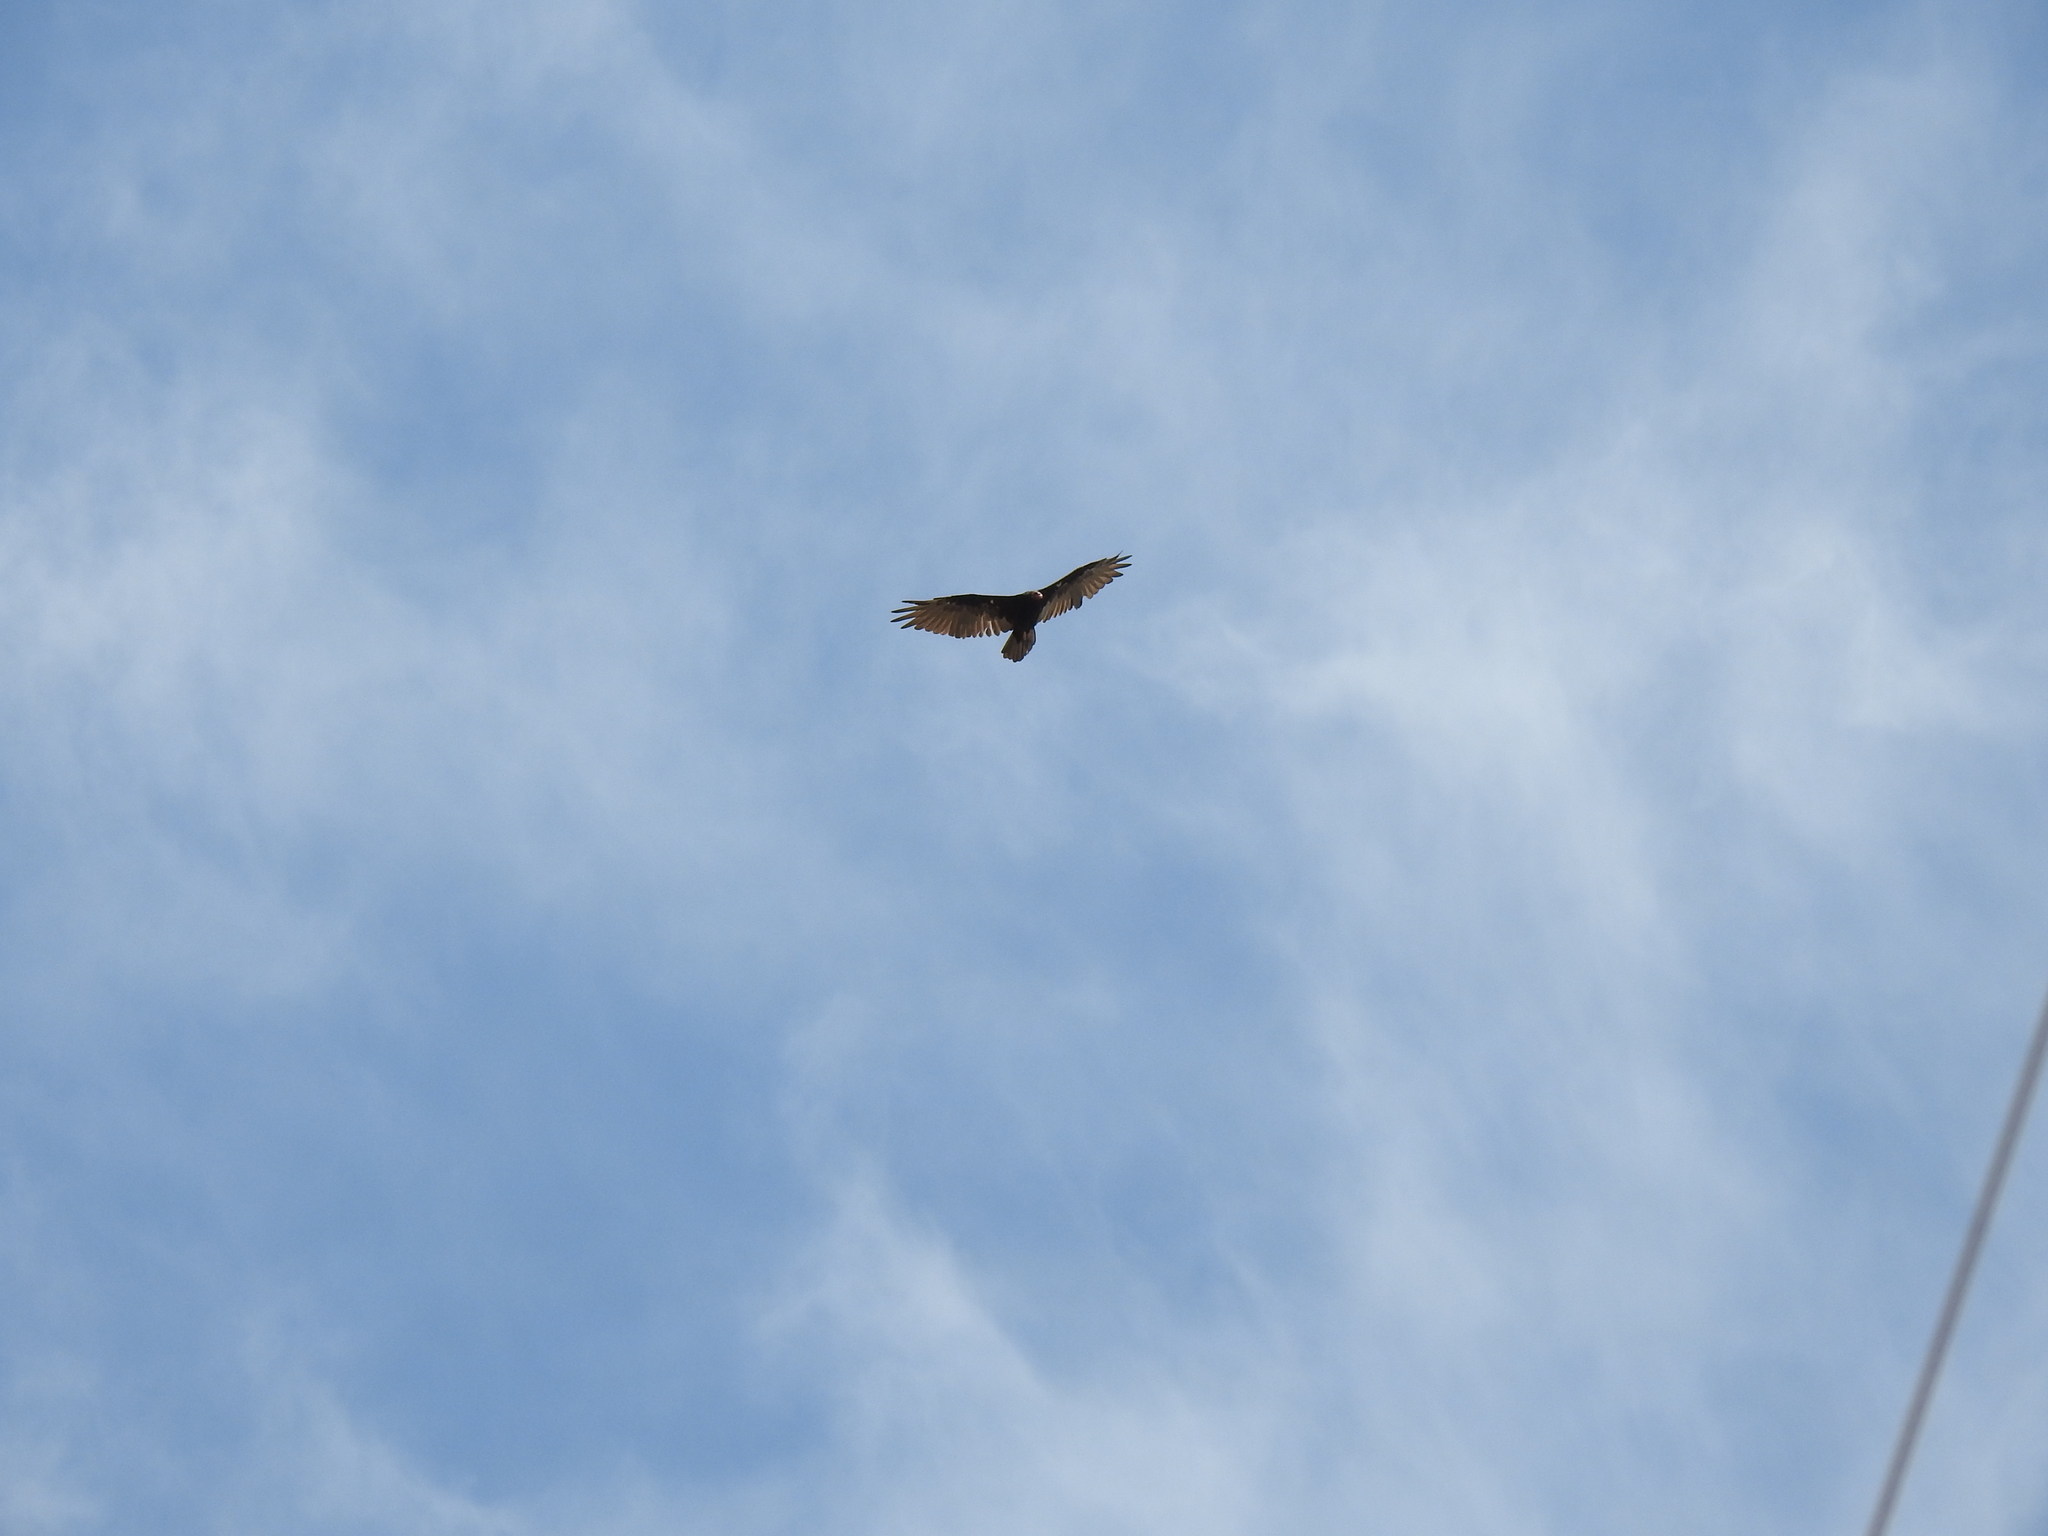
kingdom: Animalia
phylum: Chordata
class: Aves
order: Accipitriformes
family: Cathartidae
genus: Cathartes
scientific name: Cathartes aura
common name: Turkey vulture
